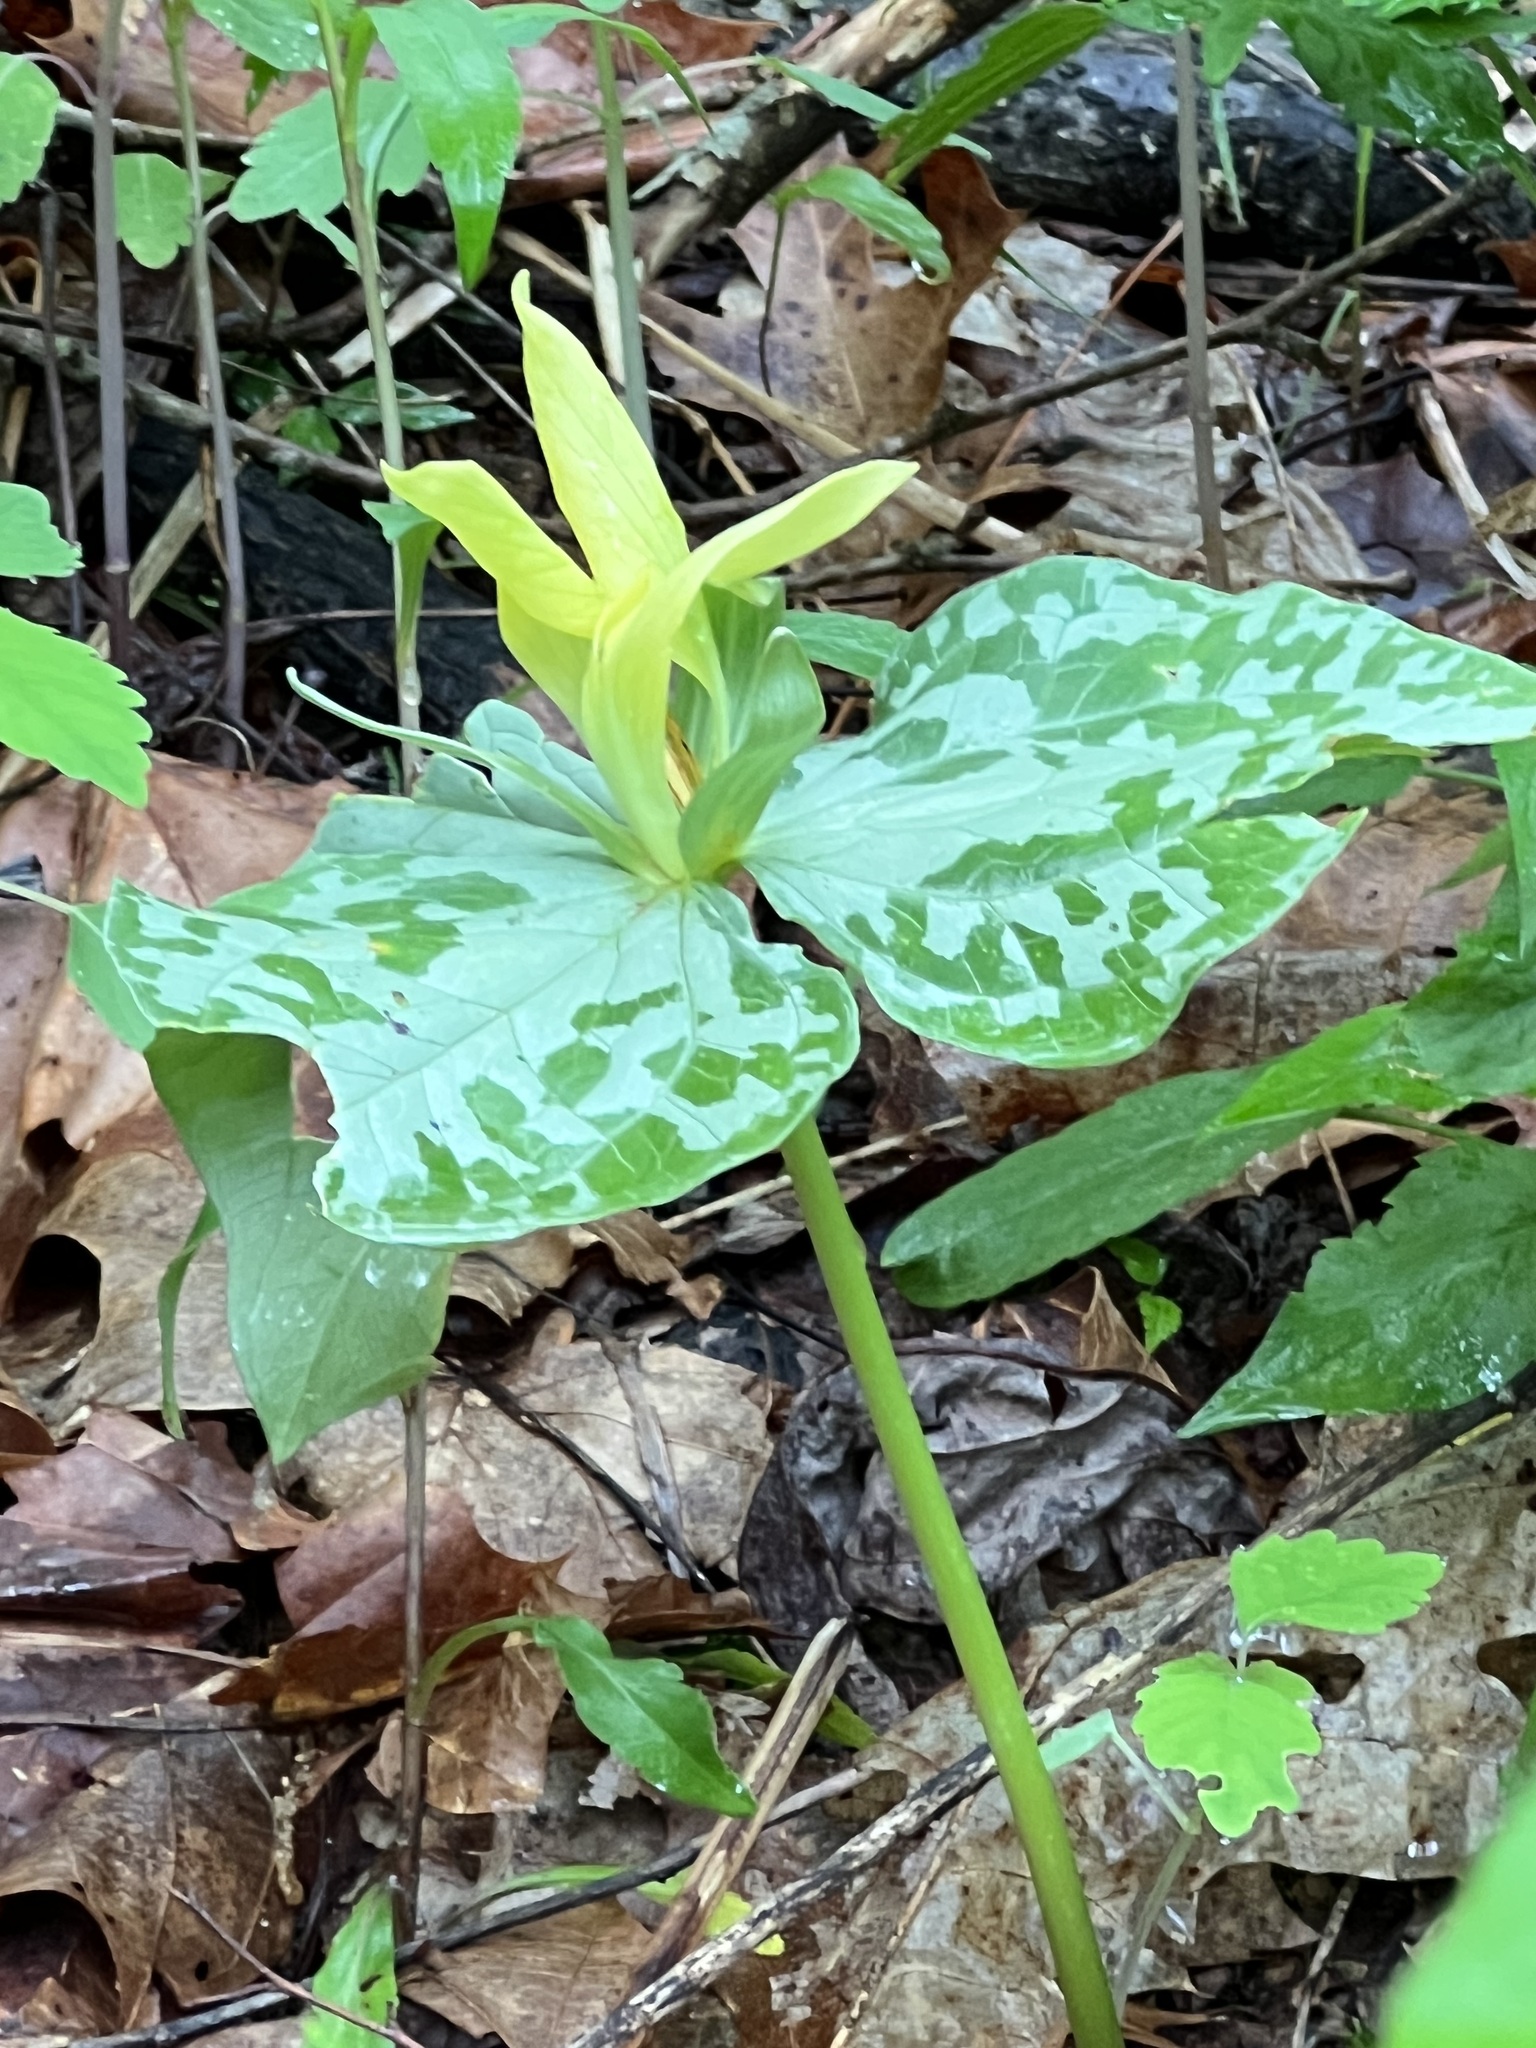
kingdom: Plantae
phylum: Tracheophyta
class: Liliopsida
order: Liliales
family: Melanthiaceae
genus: Trillium
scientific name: Trillium luteum
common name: Wax trillium
